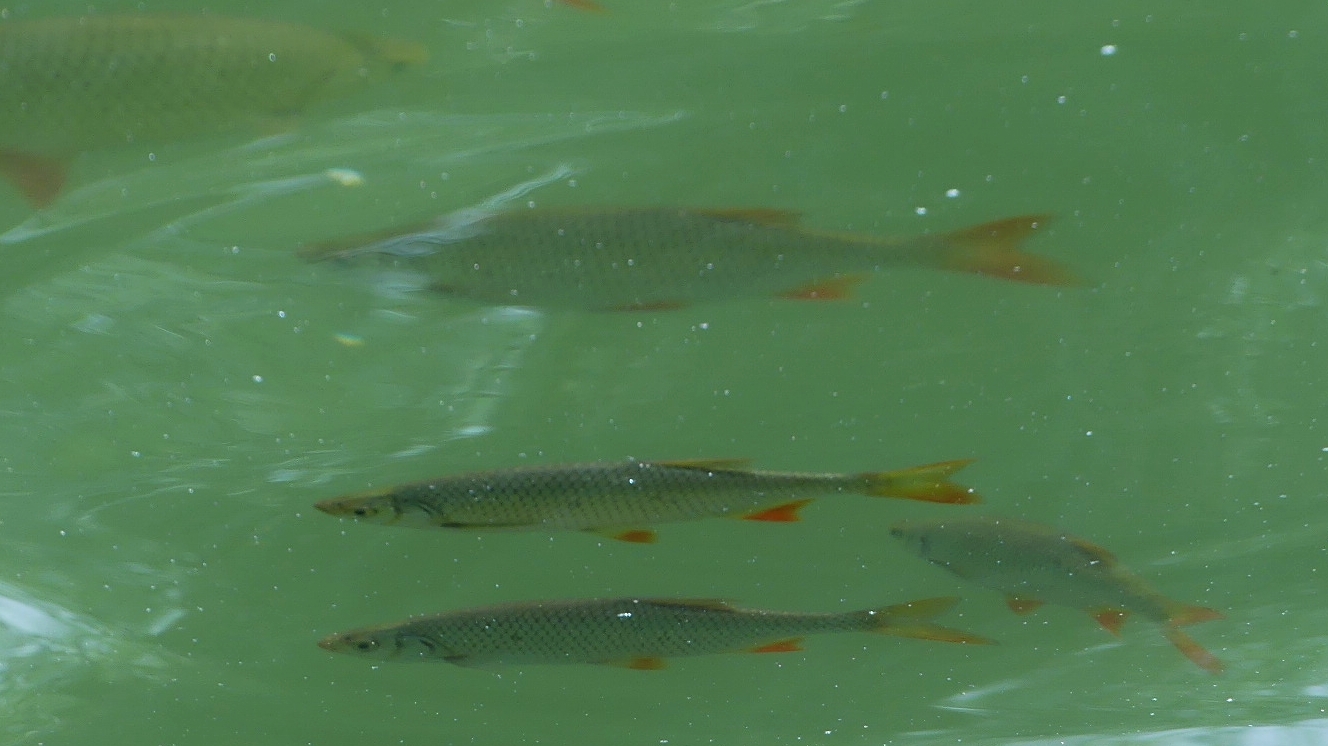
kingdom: Animalia
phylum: Chordata
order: Cypriniformes
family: Cyprinidae
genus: Scardinius
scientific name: Scardinius erythrophthalmus
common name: Rudd
